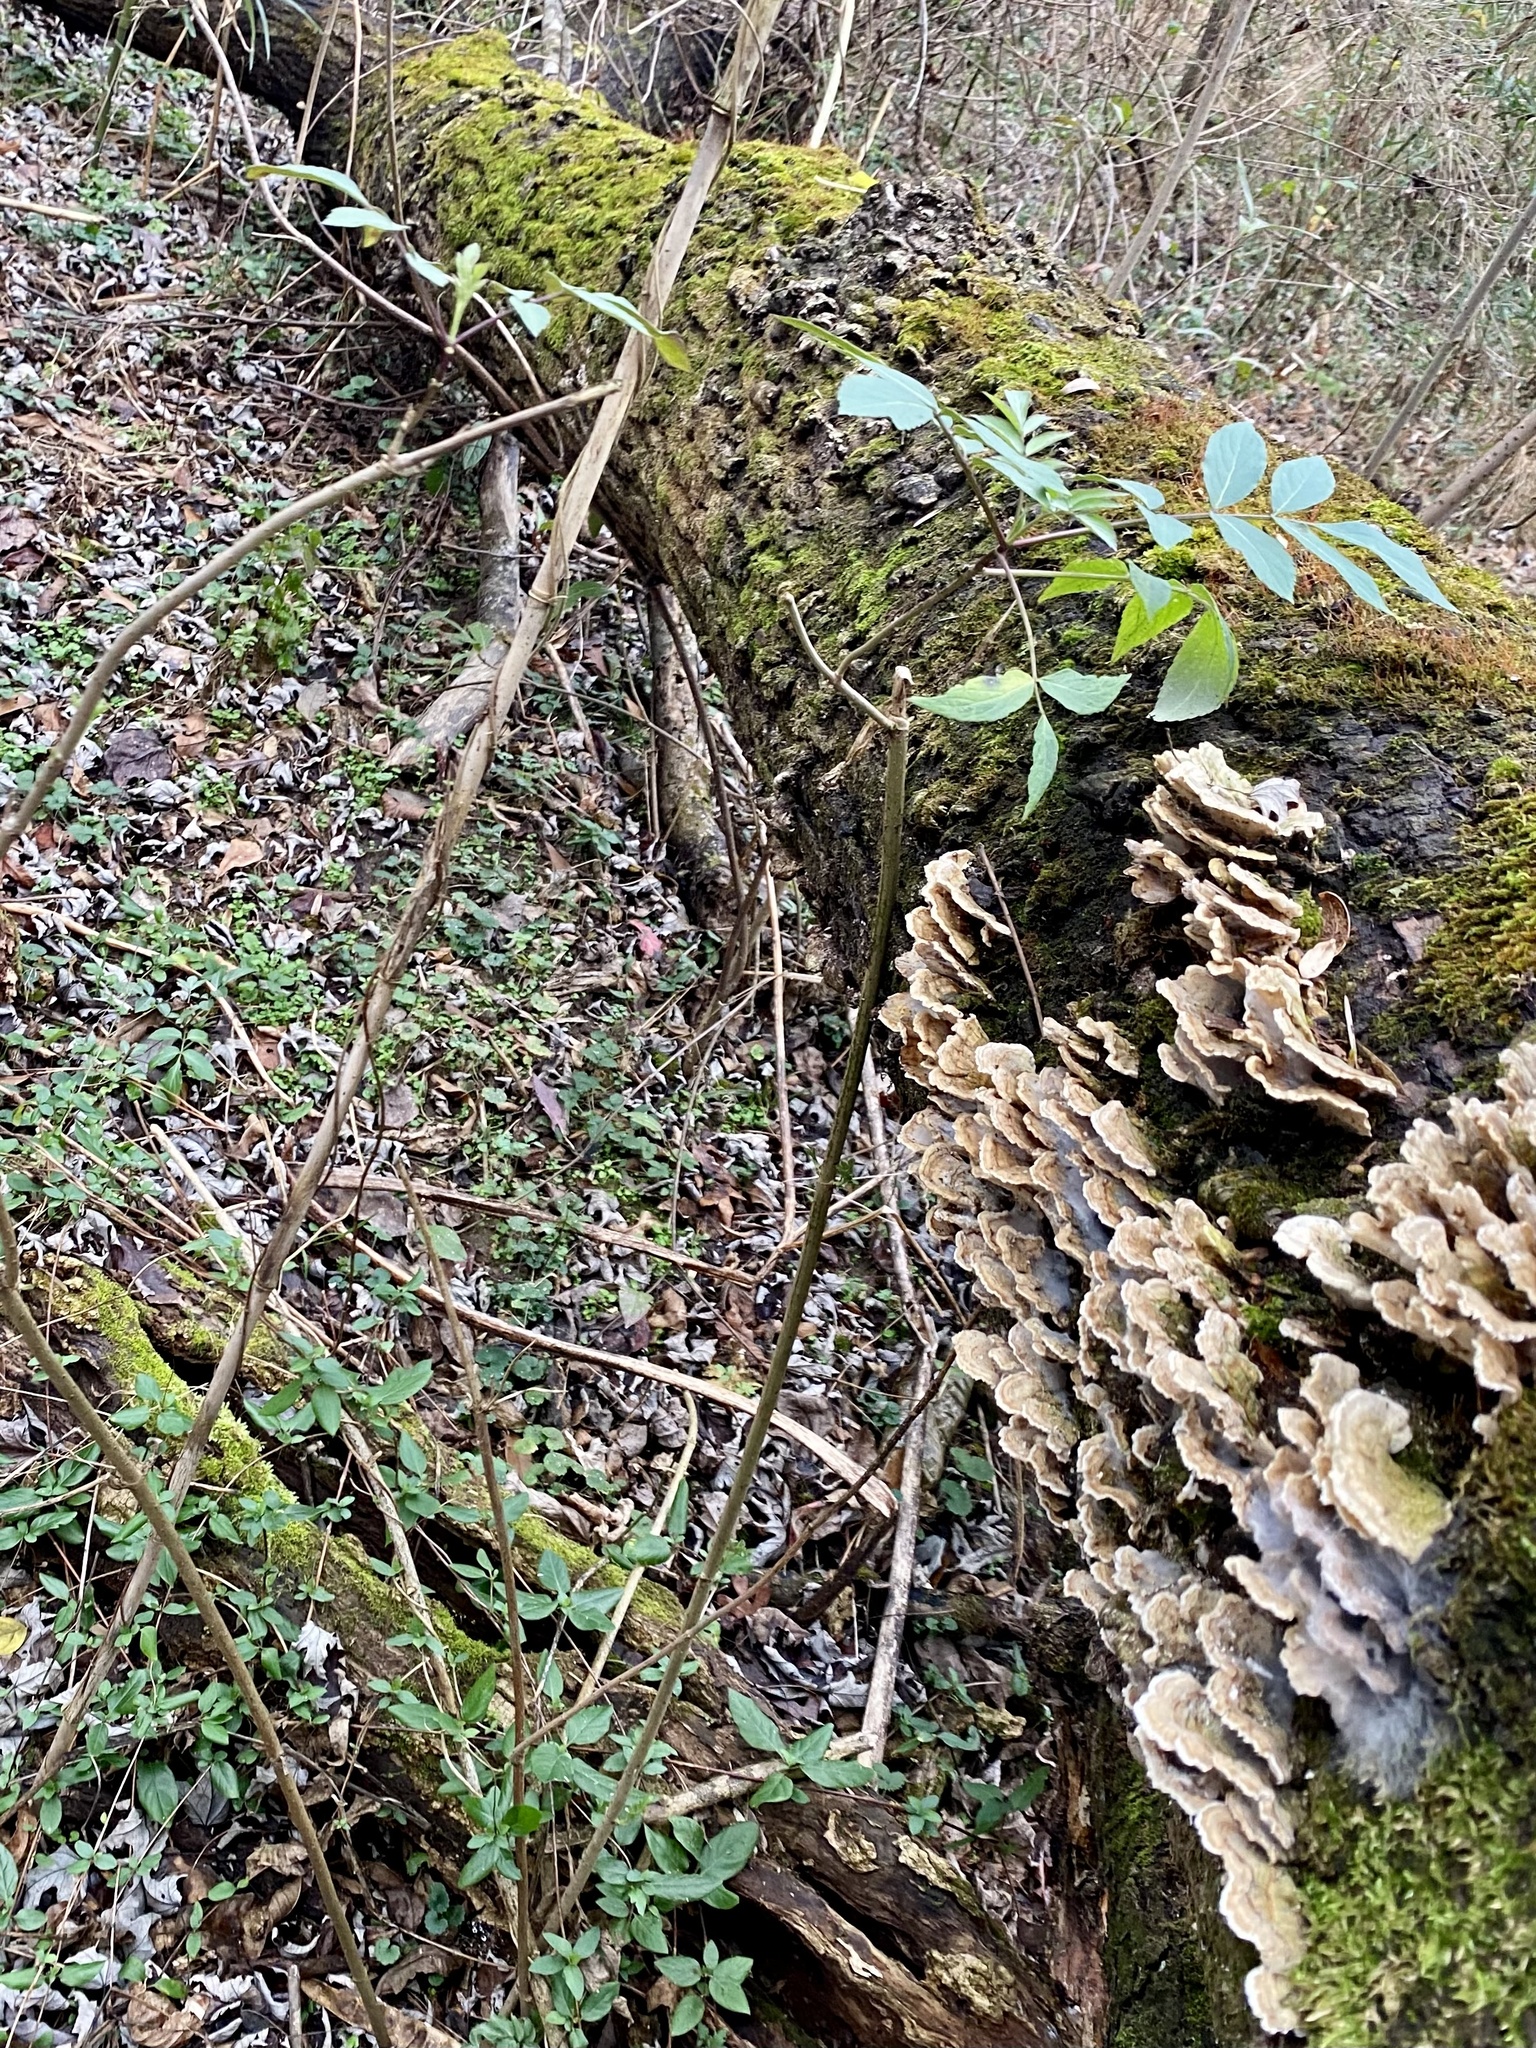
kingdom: Plantae
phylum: Tracheophyta
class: Magnoliopsida
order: Dipsacales
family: Viburnaceae
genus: Sambucus
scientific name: Sambucus canadensis
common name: American elder
